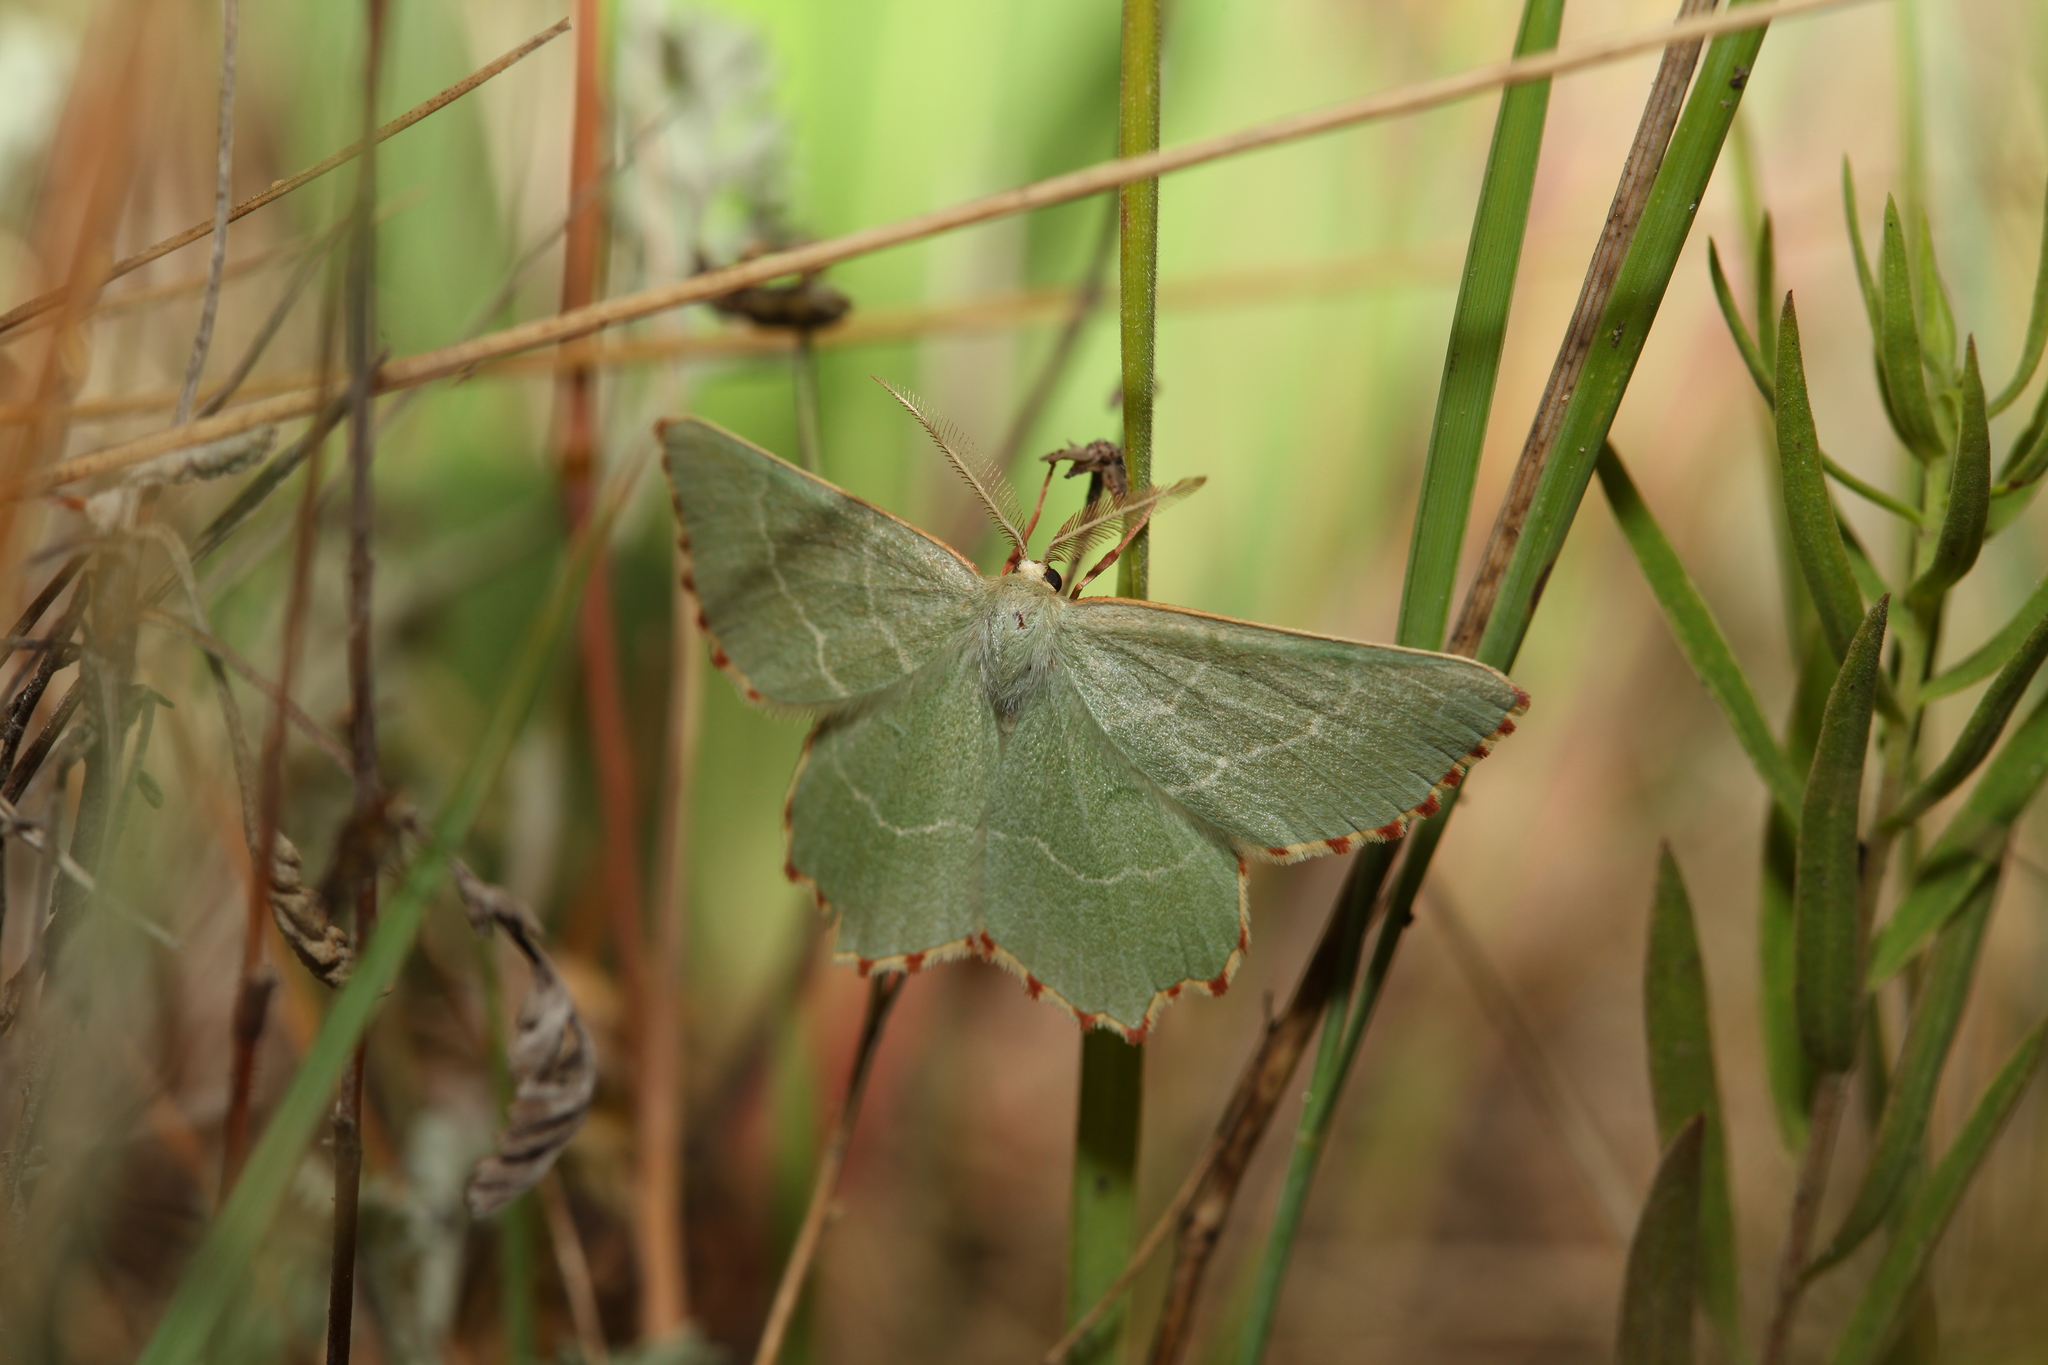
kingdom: Animalia
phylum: Arthropoda
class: Insecta
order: Lepidoptera
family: Geometridae
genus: Thalera
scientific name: Thalera fimbrialis
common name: Sussex emerald
